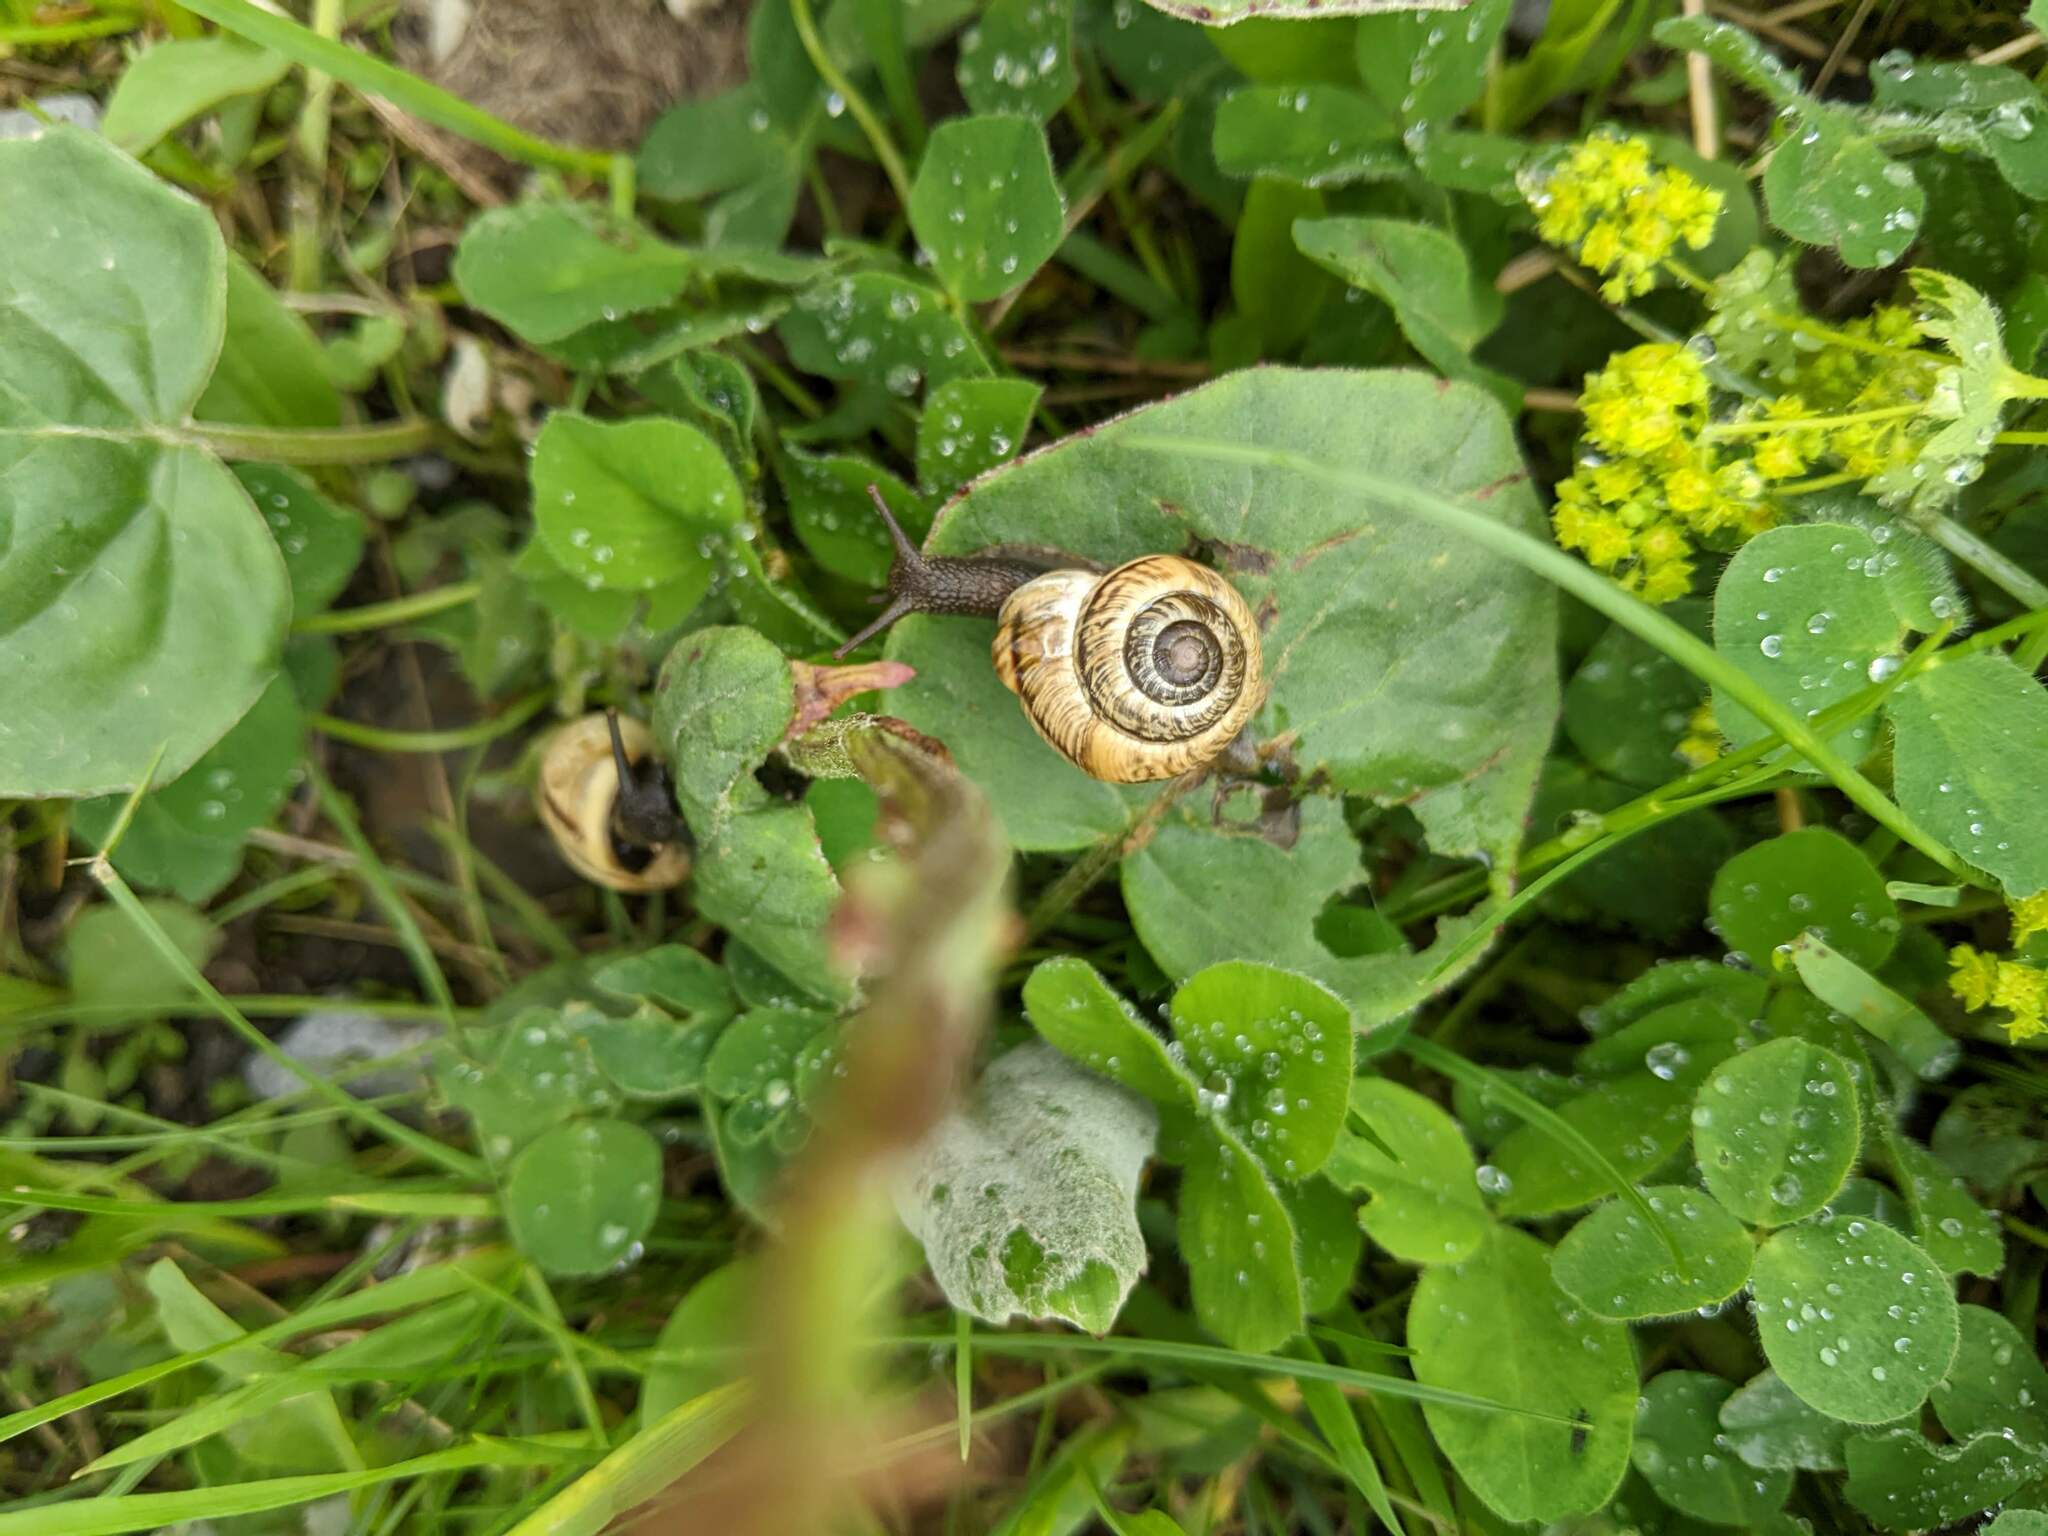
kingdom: Animalia
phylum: Mollusca
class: Gastropoda
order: Stylommatophora
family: Helicidae
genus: Arianta
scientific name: Arianta arbustorum
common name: Copse snail
